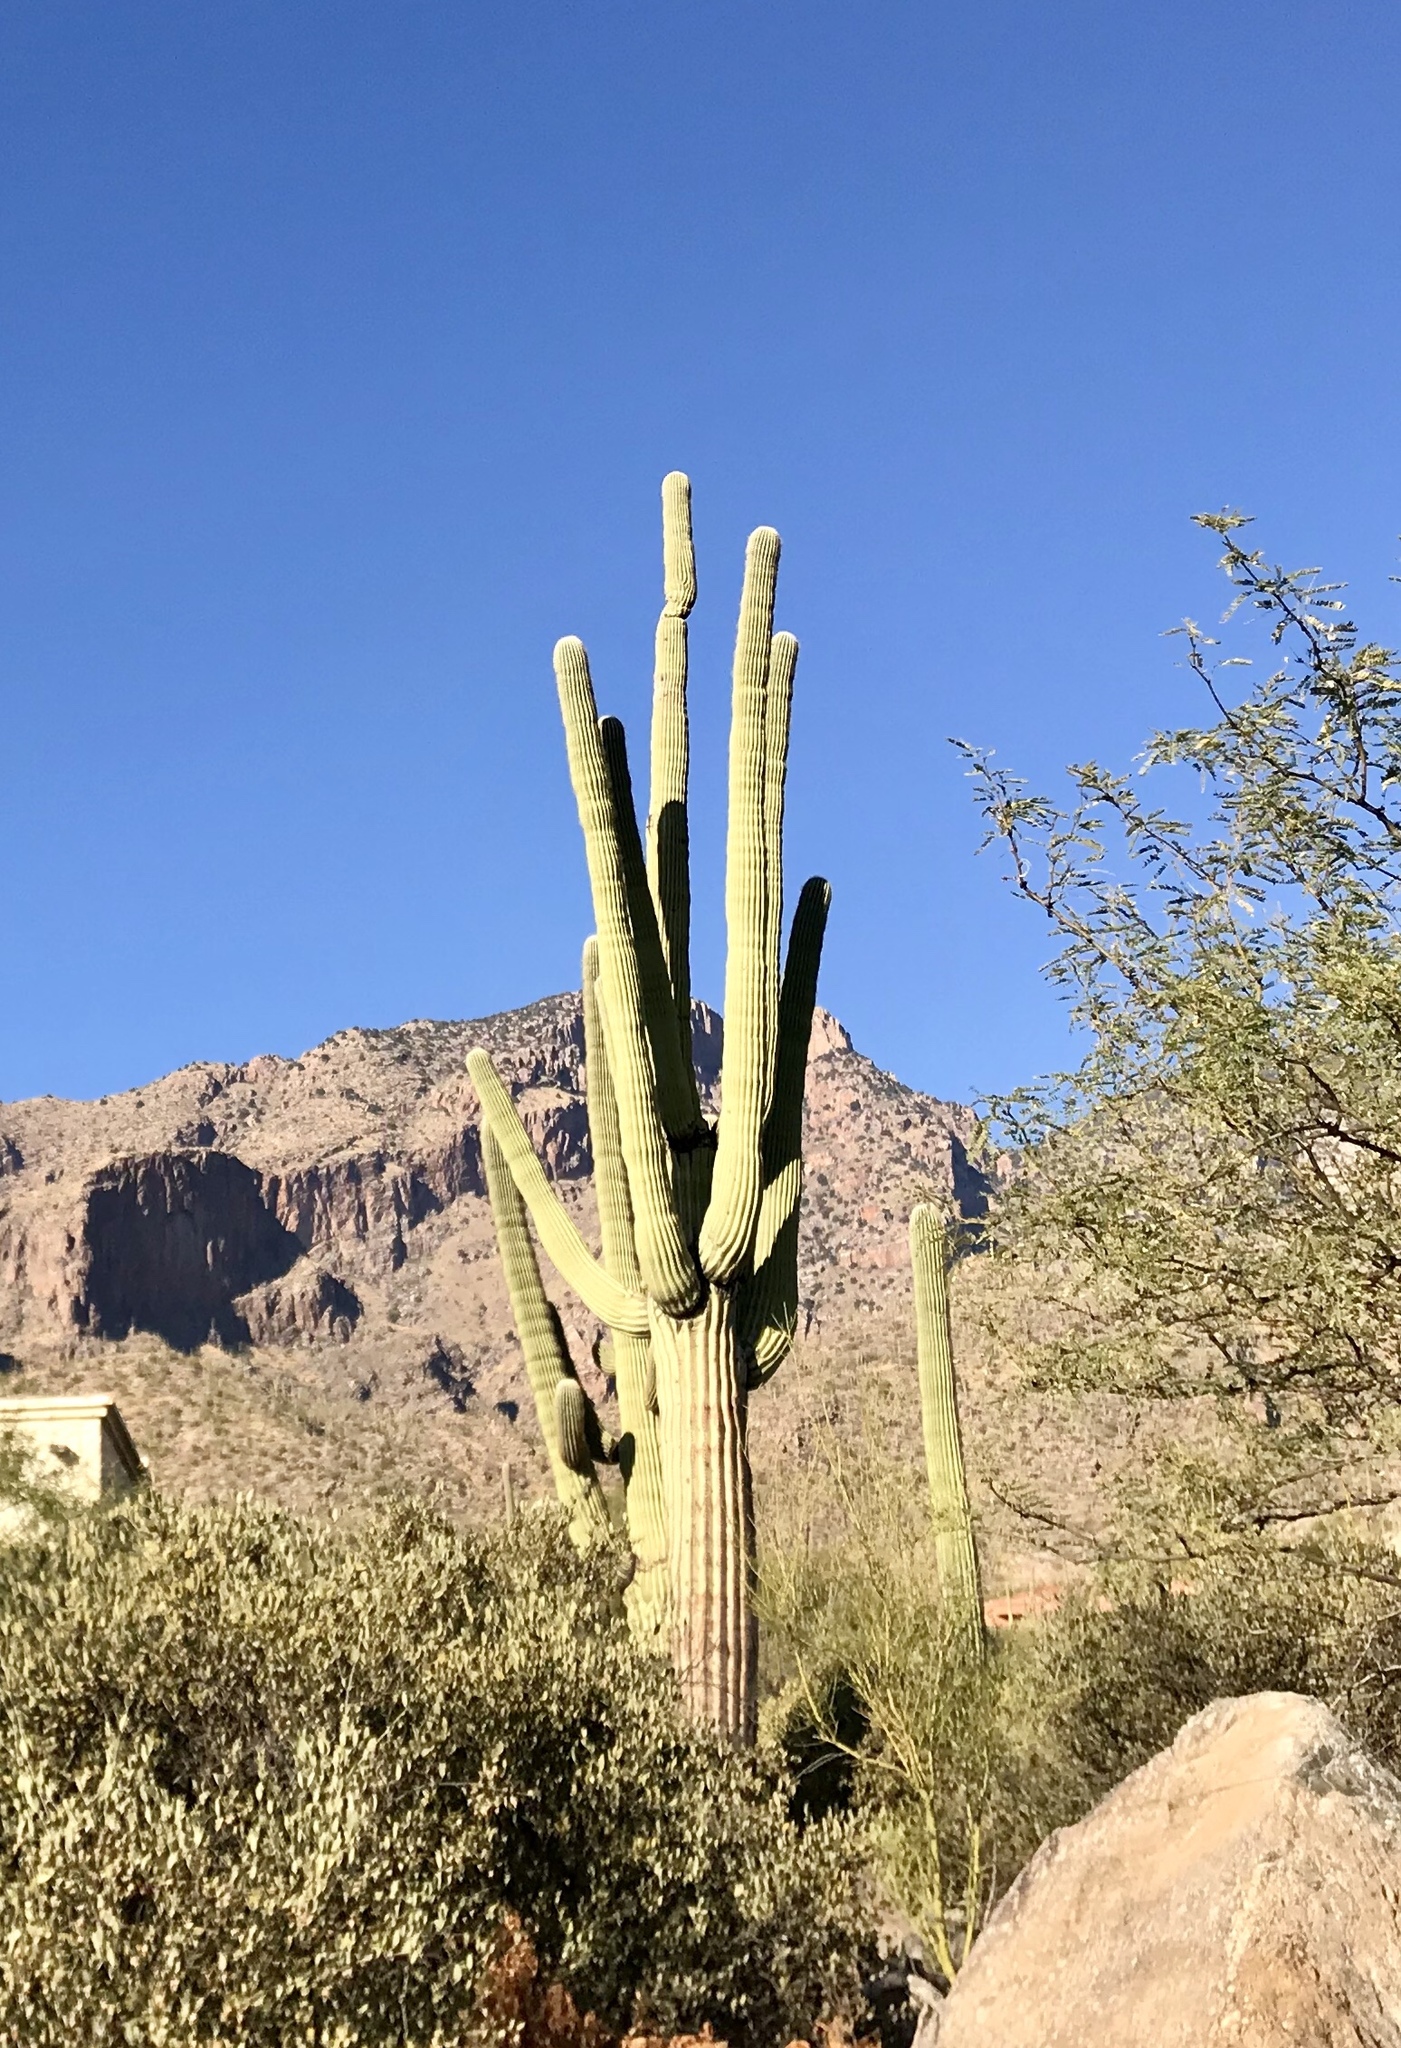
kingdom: Plantae
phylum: Tracheophyta
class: Magnoliopsida
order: Caryophyllales
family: Cactaceae
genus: Carnegiea
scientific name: Carnegiea gigantea
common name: Saguaro
